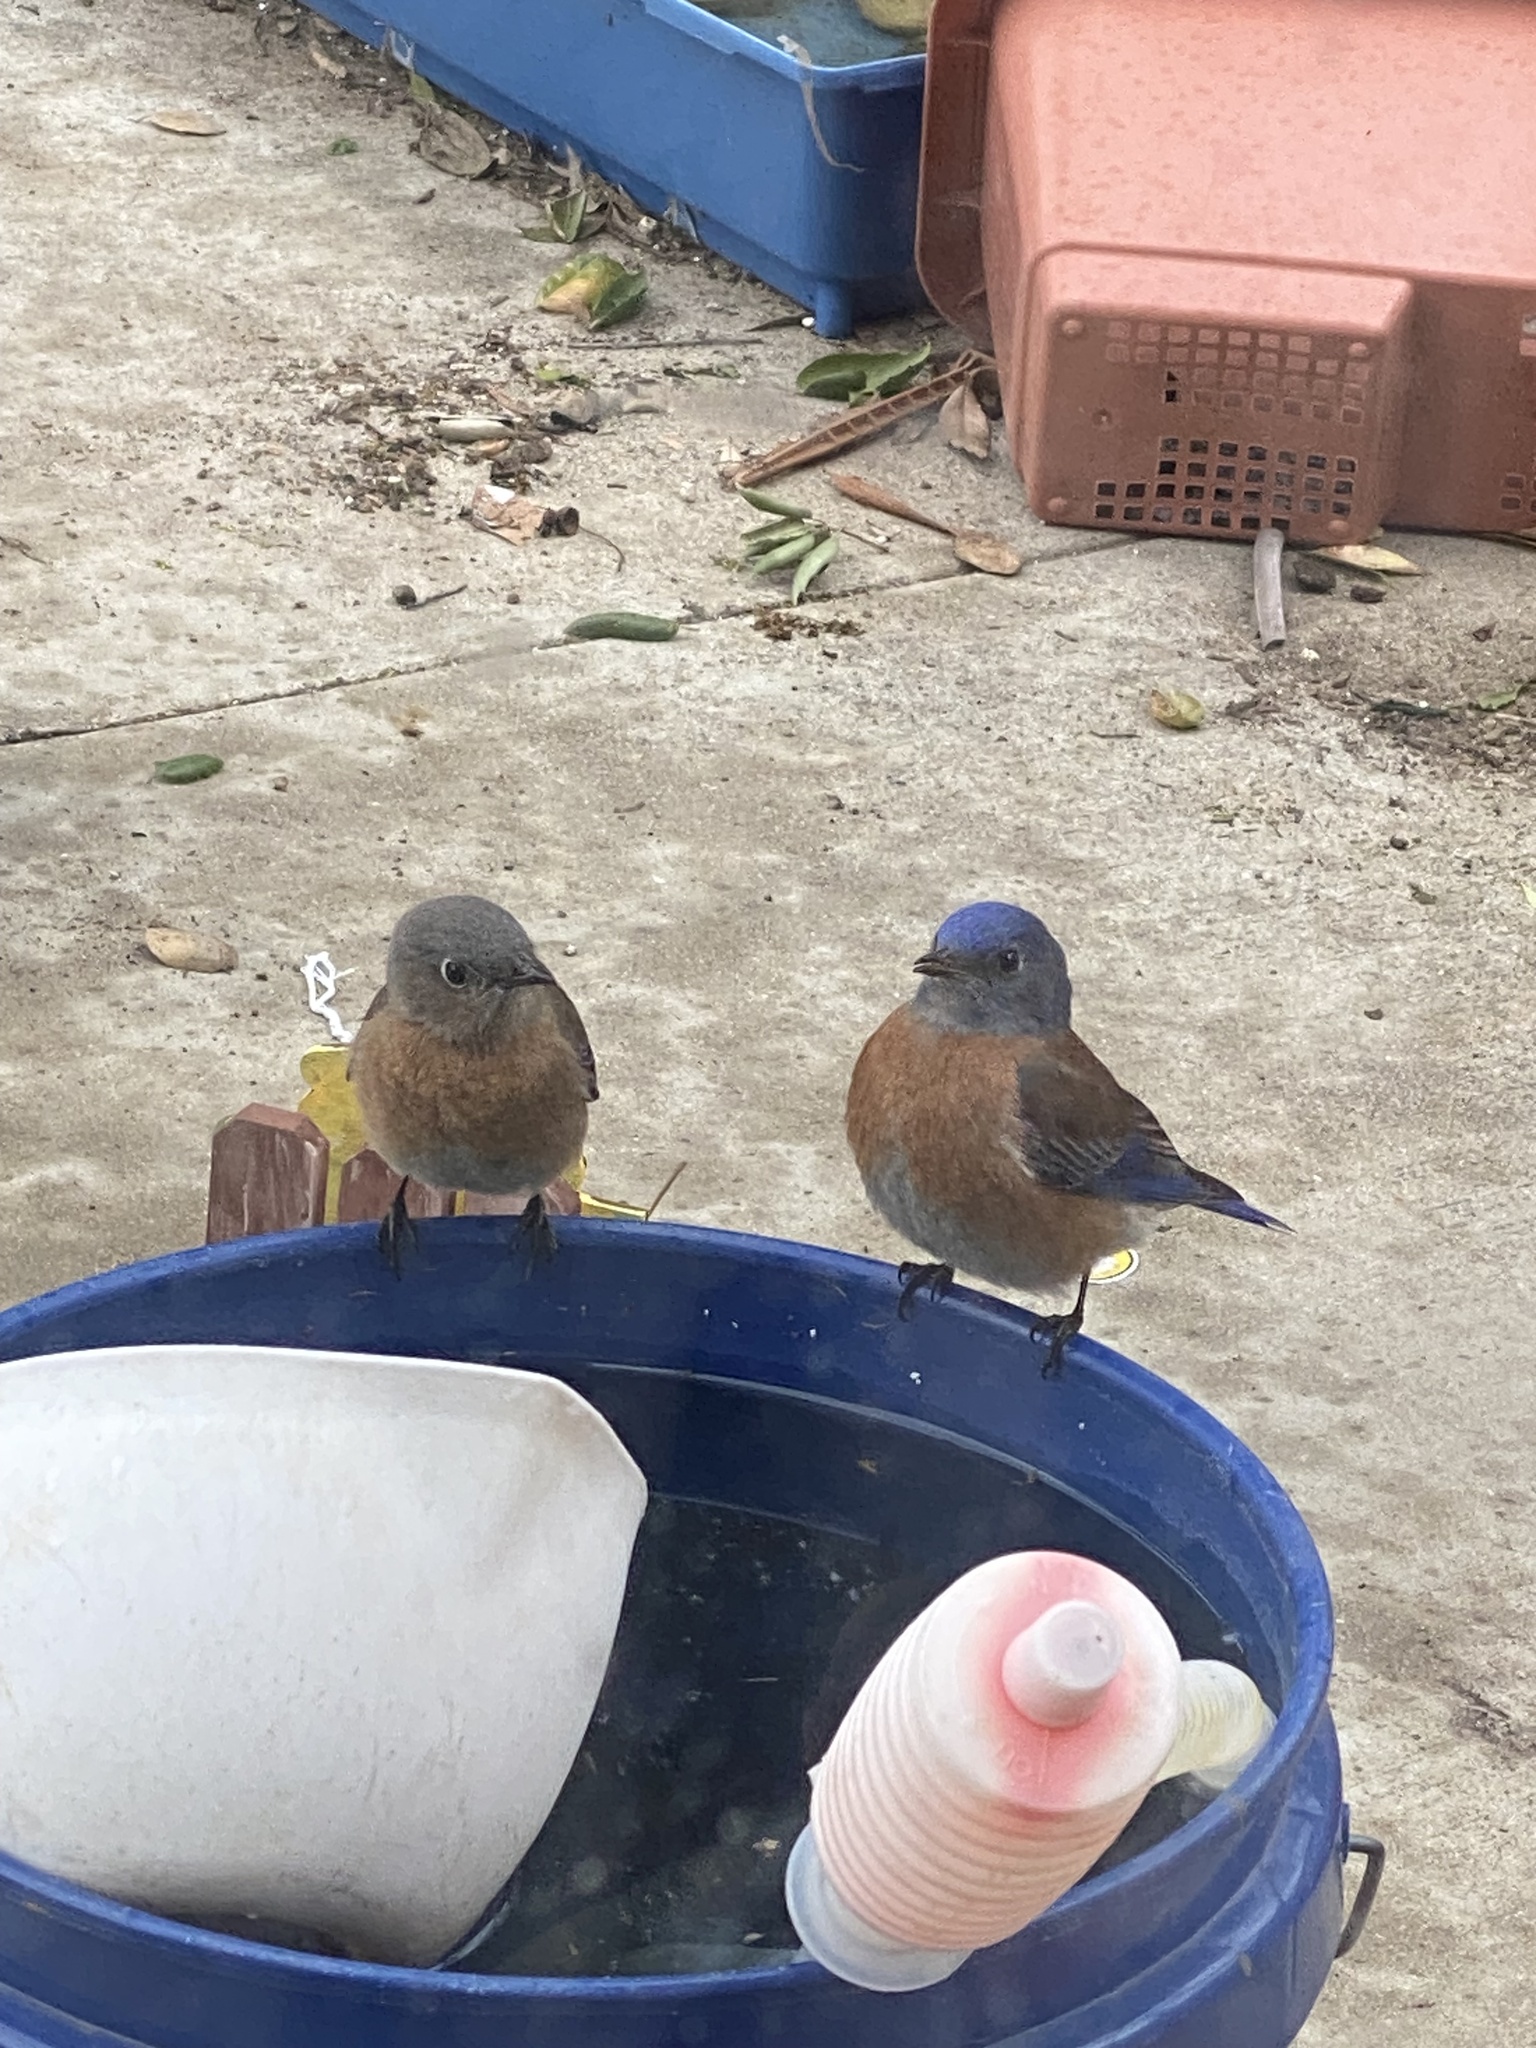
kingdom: Animalia
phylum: Chordata
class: Aves
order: Passeriformes
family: Turdidae
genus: Sialia
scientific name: Sialia mexicana
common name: Western bluebird
